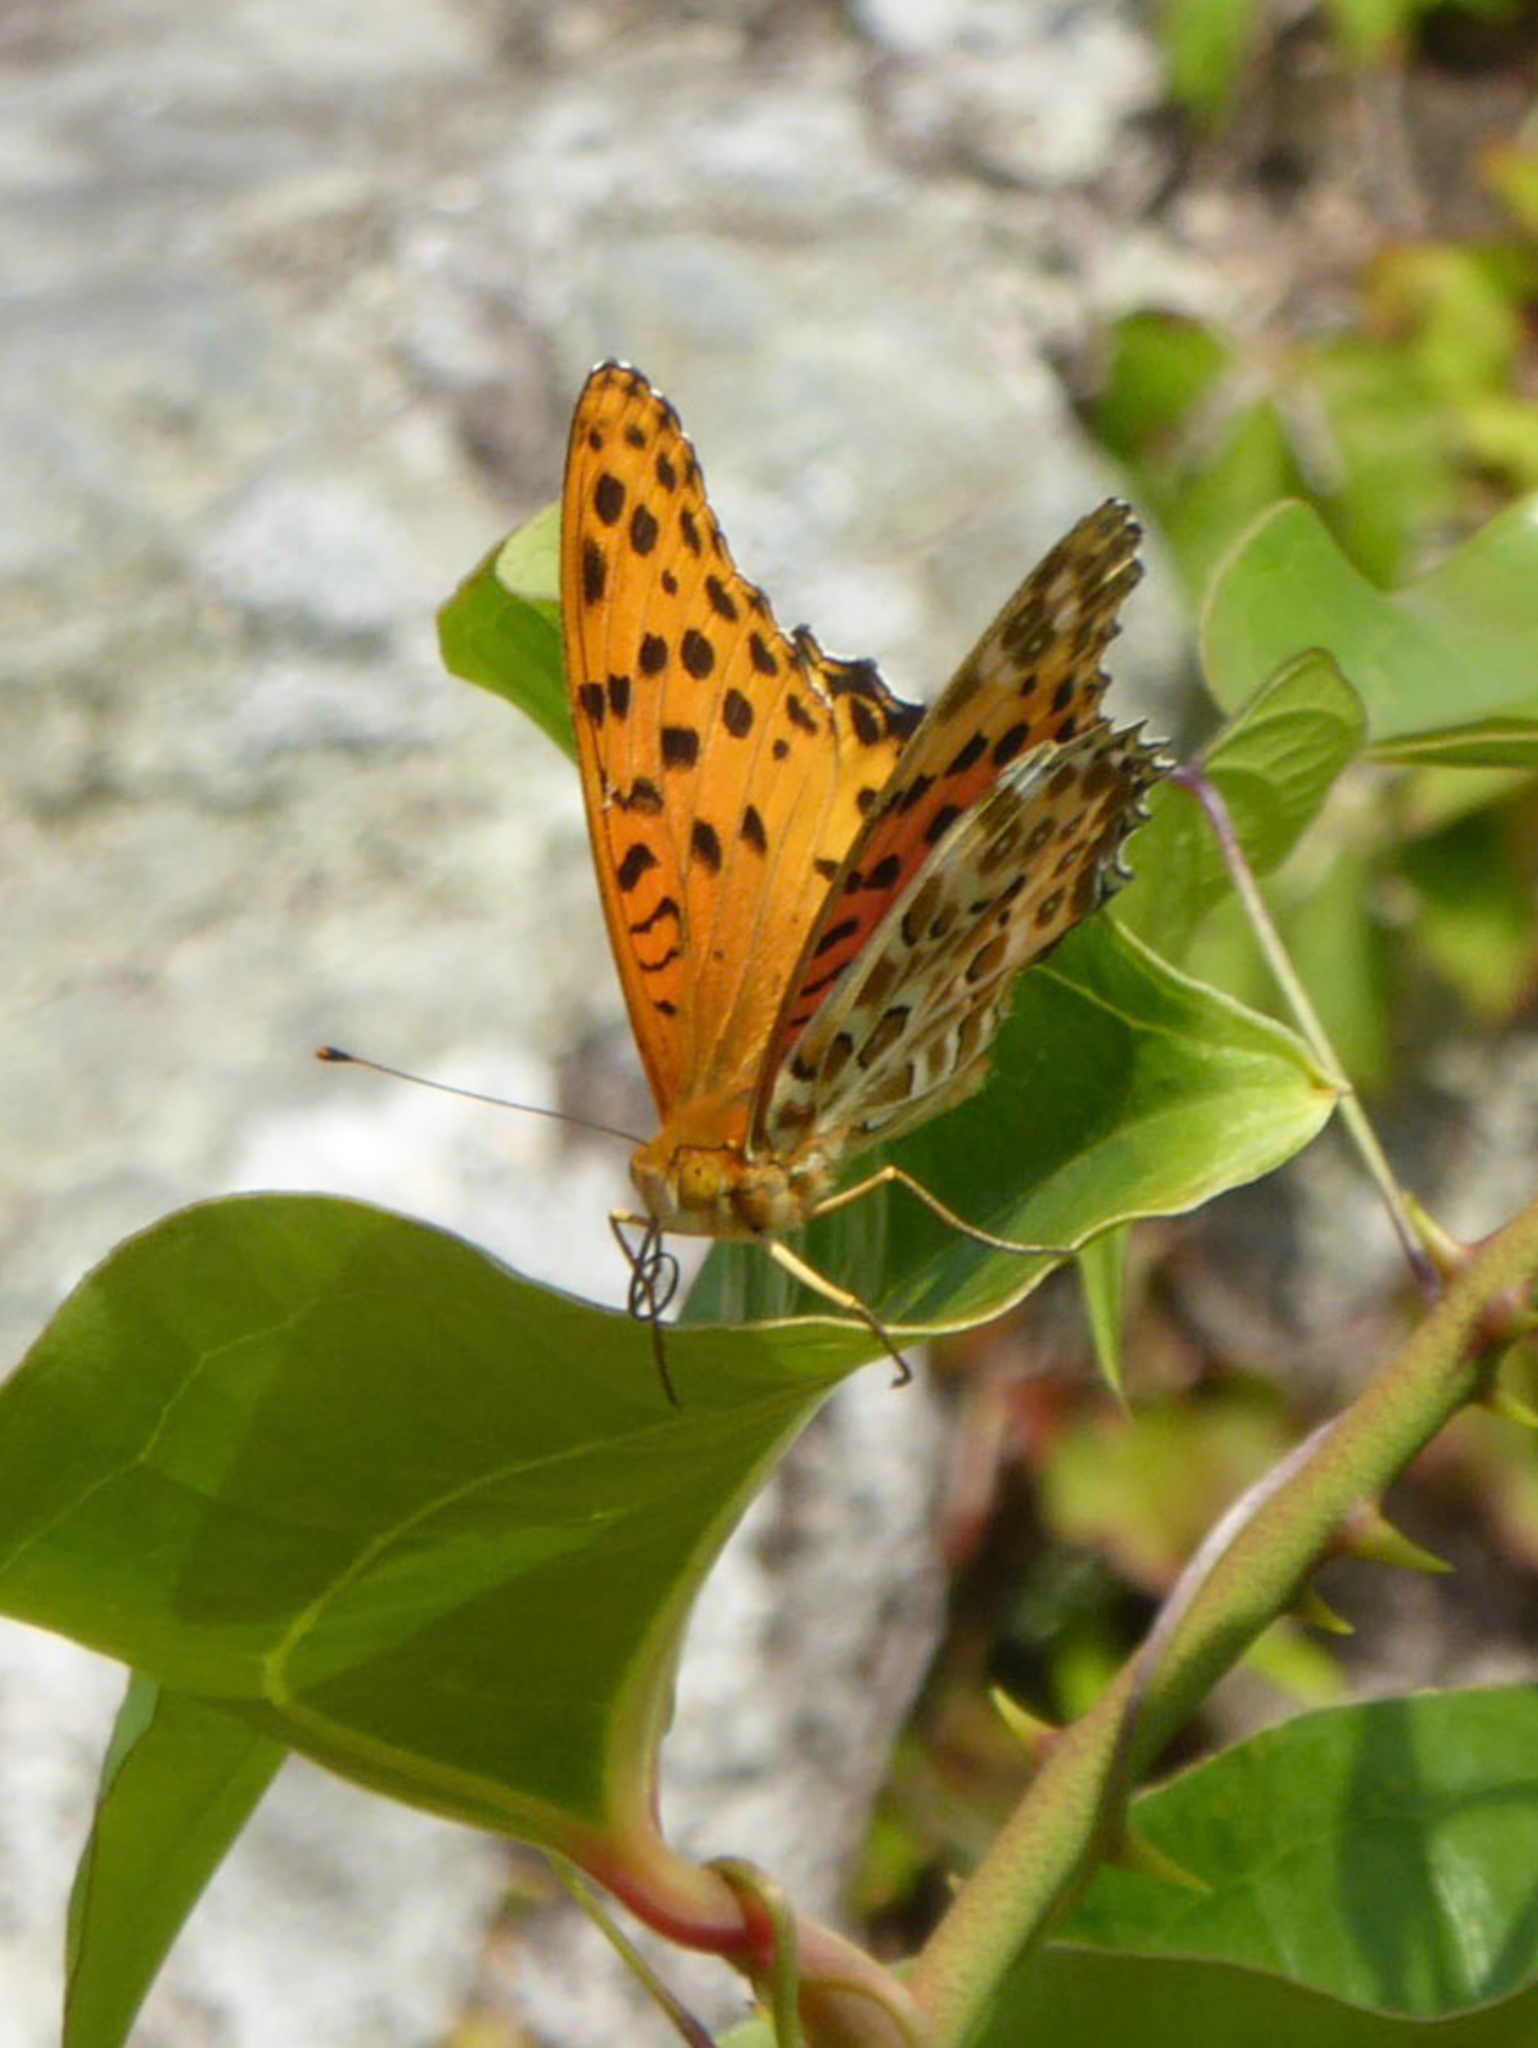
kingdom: Animalia
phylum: Arthropoda
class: Insecta
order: Lepidoptera
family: Nymphalidae
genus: Argynnis
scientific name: Argynnis hyperbius
